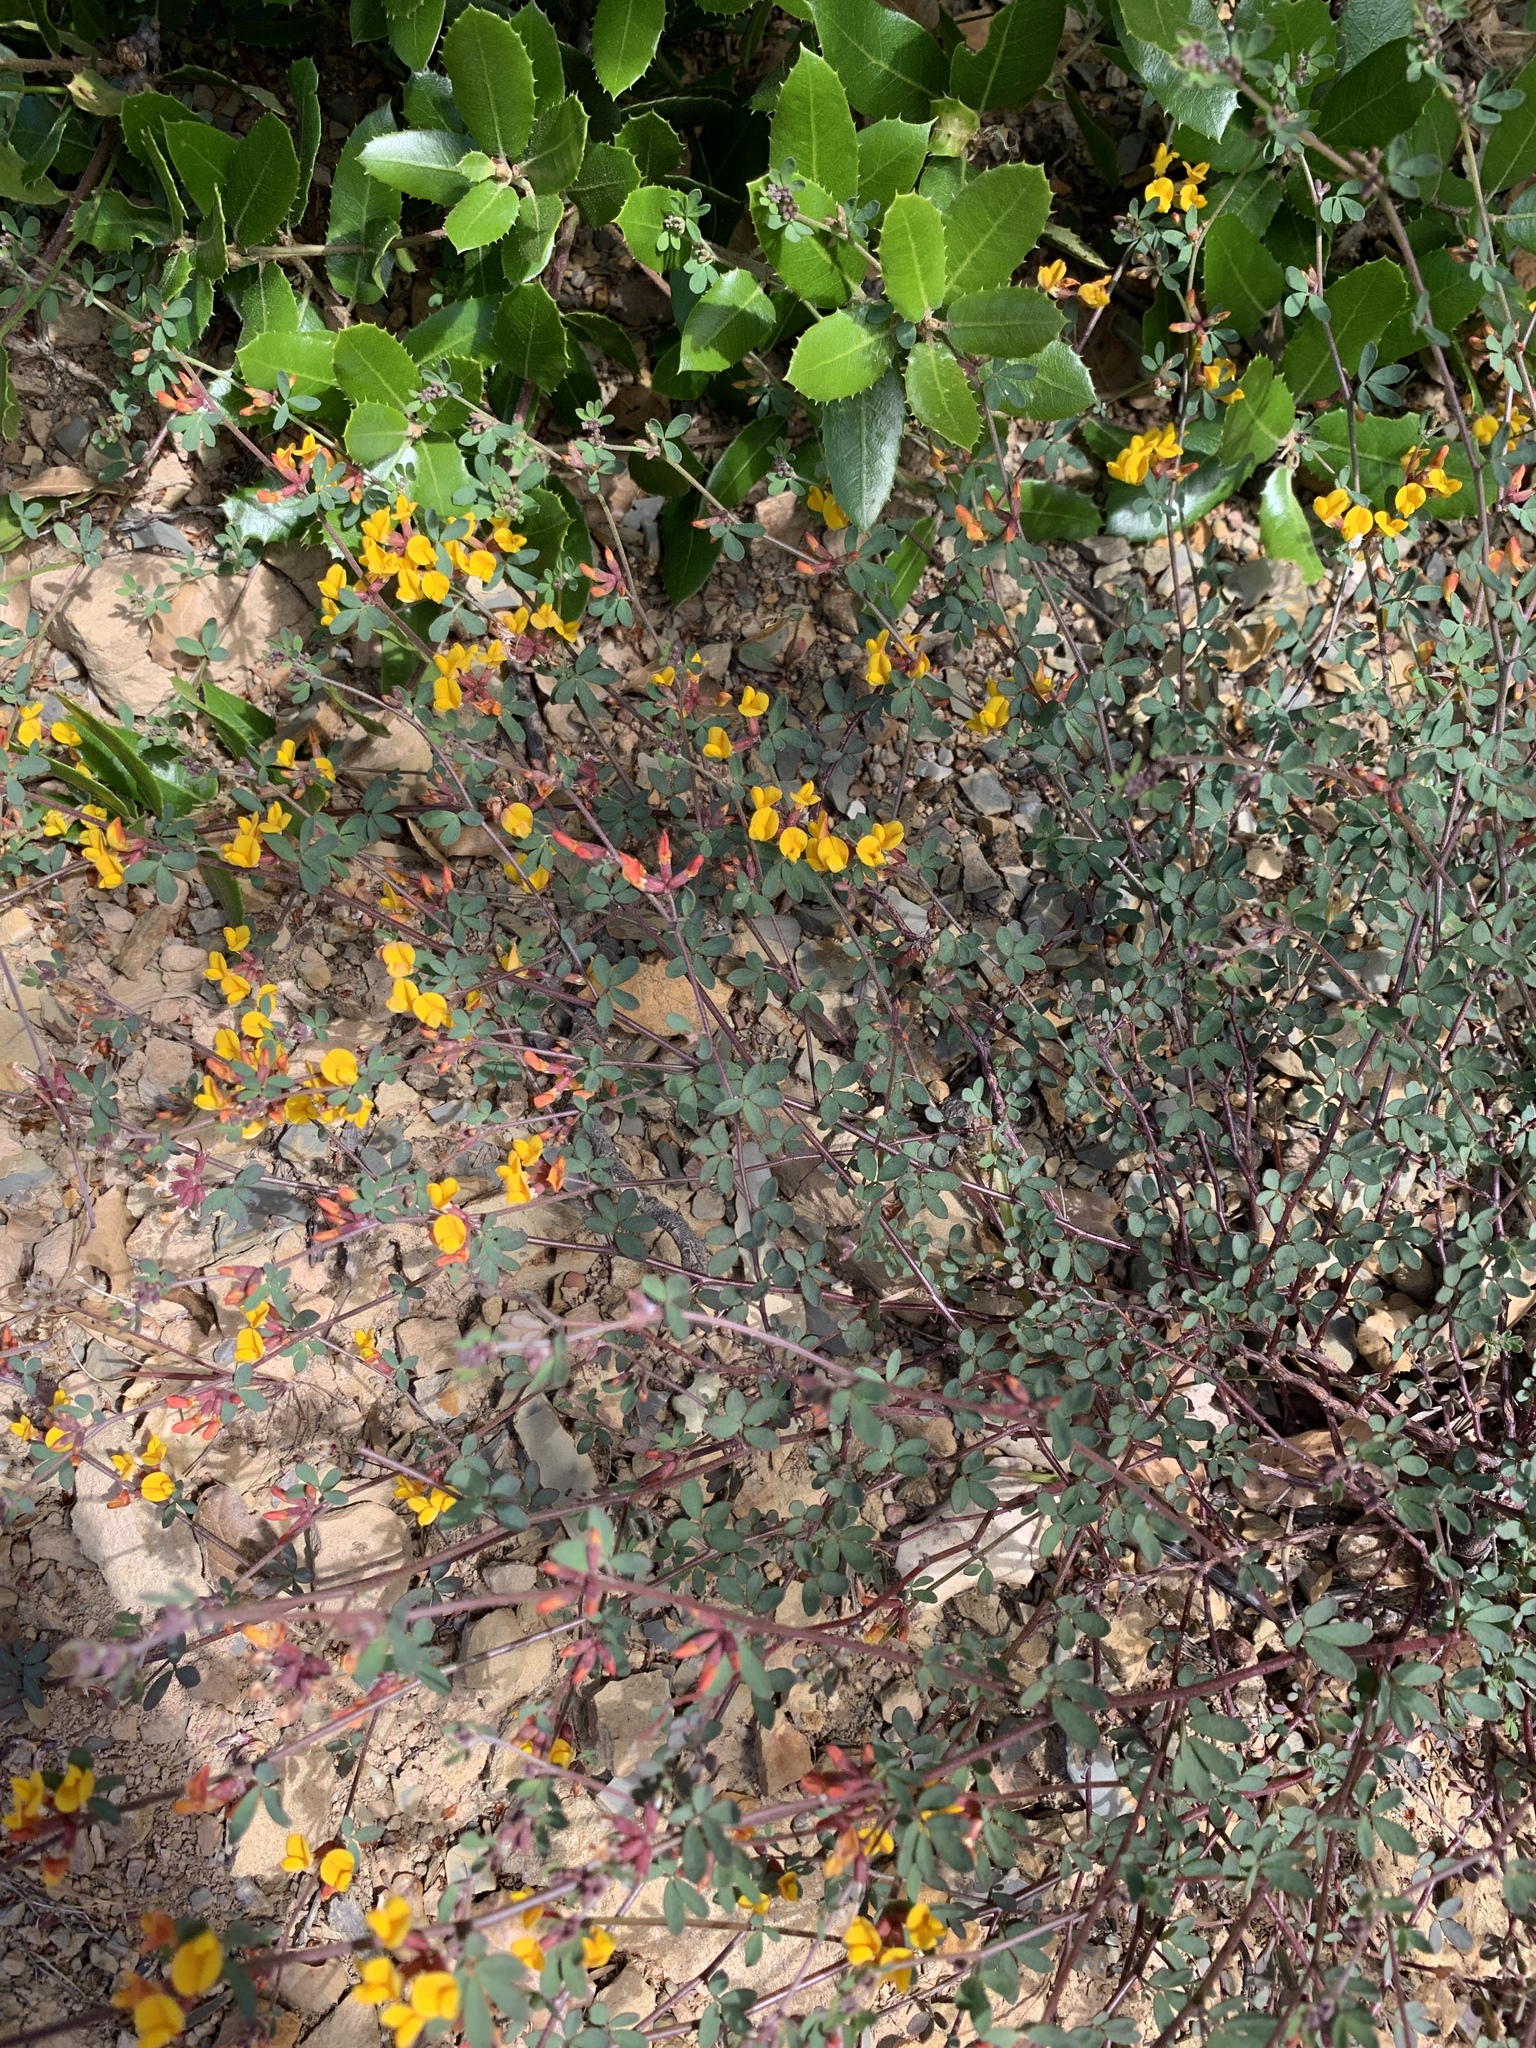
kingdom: Plantae
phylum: Tracheophyta
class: Magnoliopsida
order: Fabales
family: Fabaceae
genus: Acmispon
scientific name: Acmispon junceus
